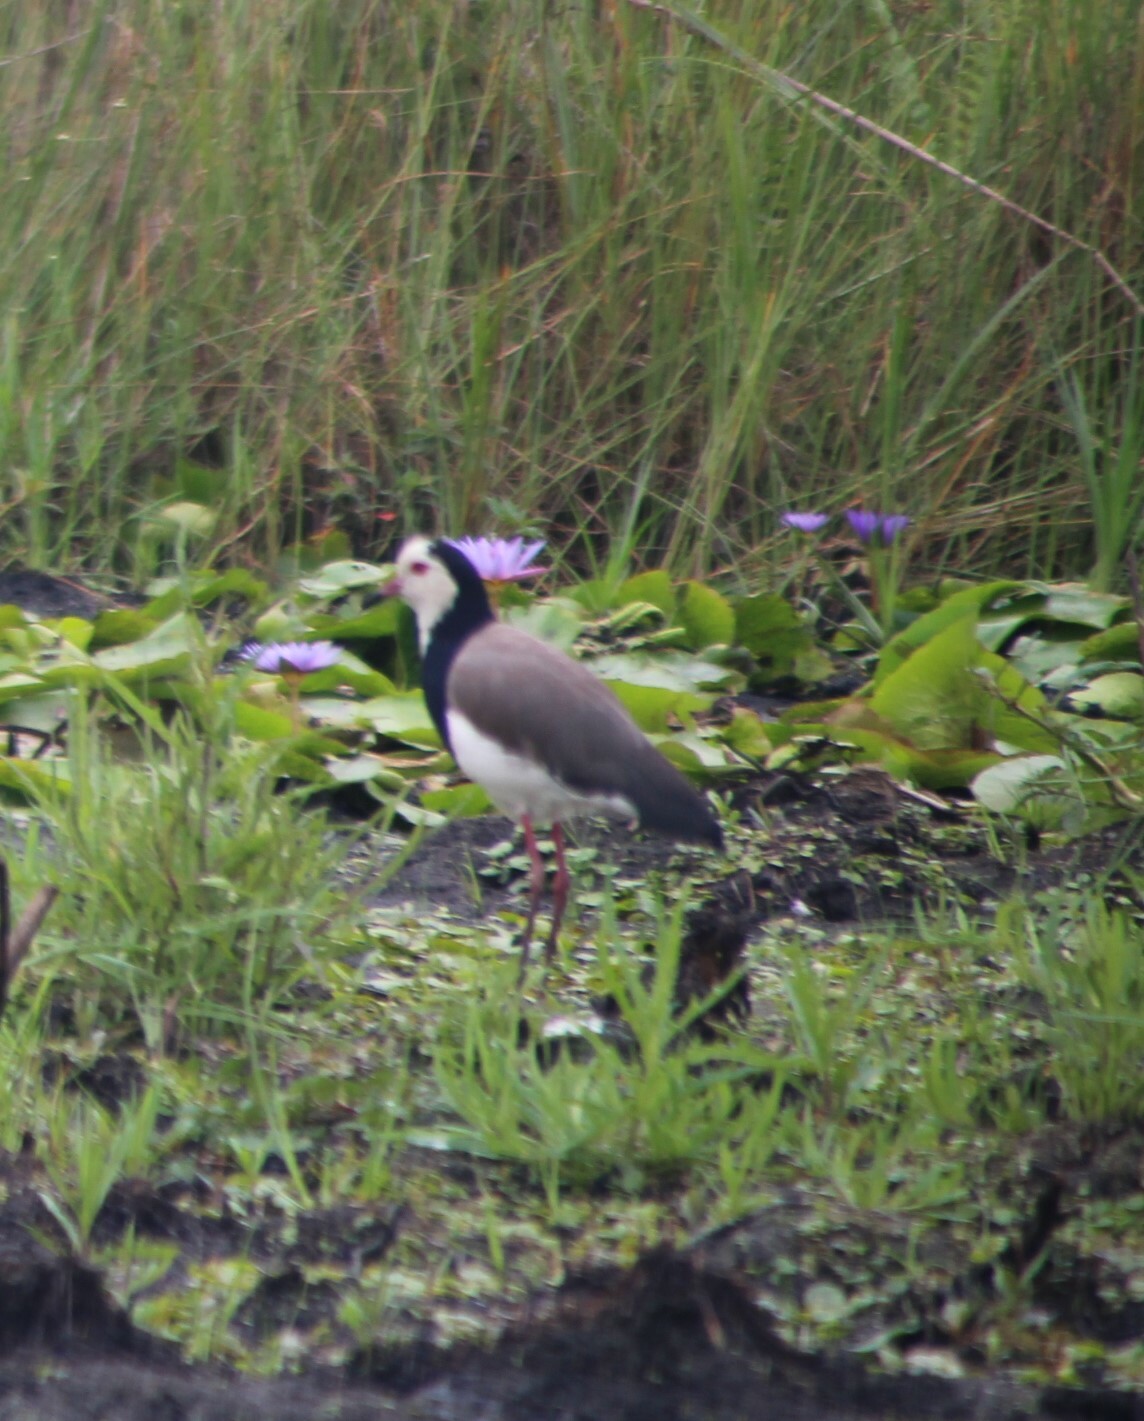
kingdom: Animalia
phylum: Chordata
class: Aves
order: Charadriiformes
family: Charadriidae
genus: Vanellus
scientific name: Vanellus crassirostris
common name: Long-toed lapwing
